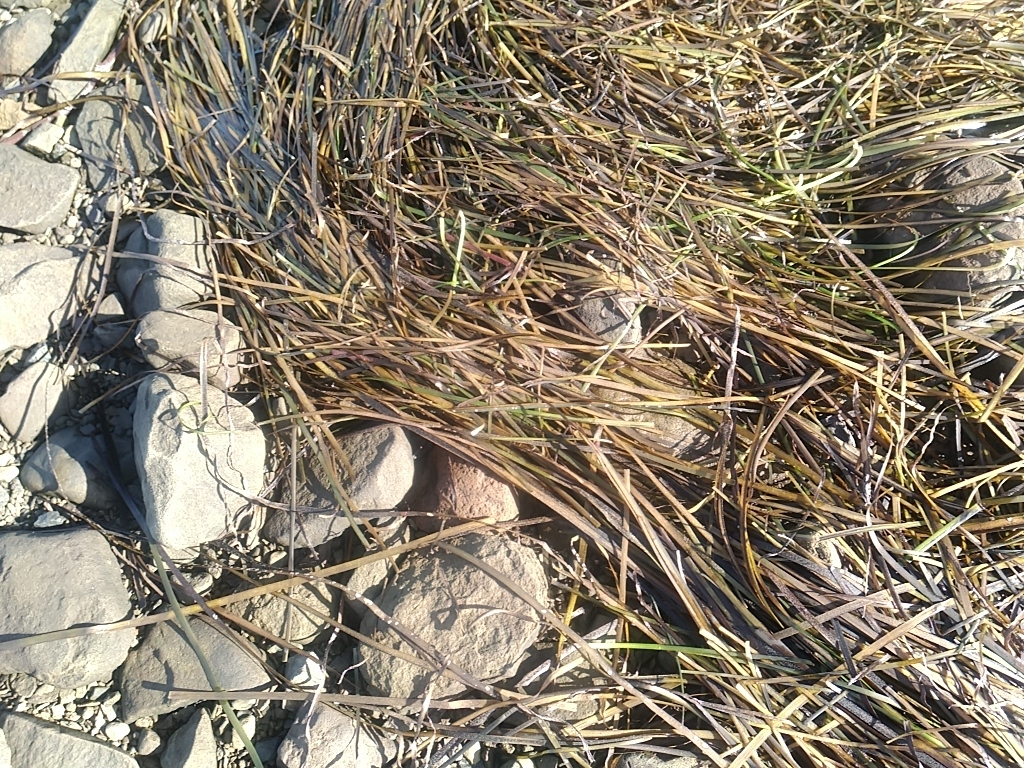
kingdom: Plantae
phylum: Tracheophyta
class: Liliopsida
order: Alismatales
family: Zosteraceae
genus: Zostera
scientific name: Zostera marina
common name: Eelgrass
